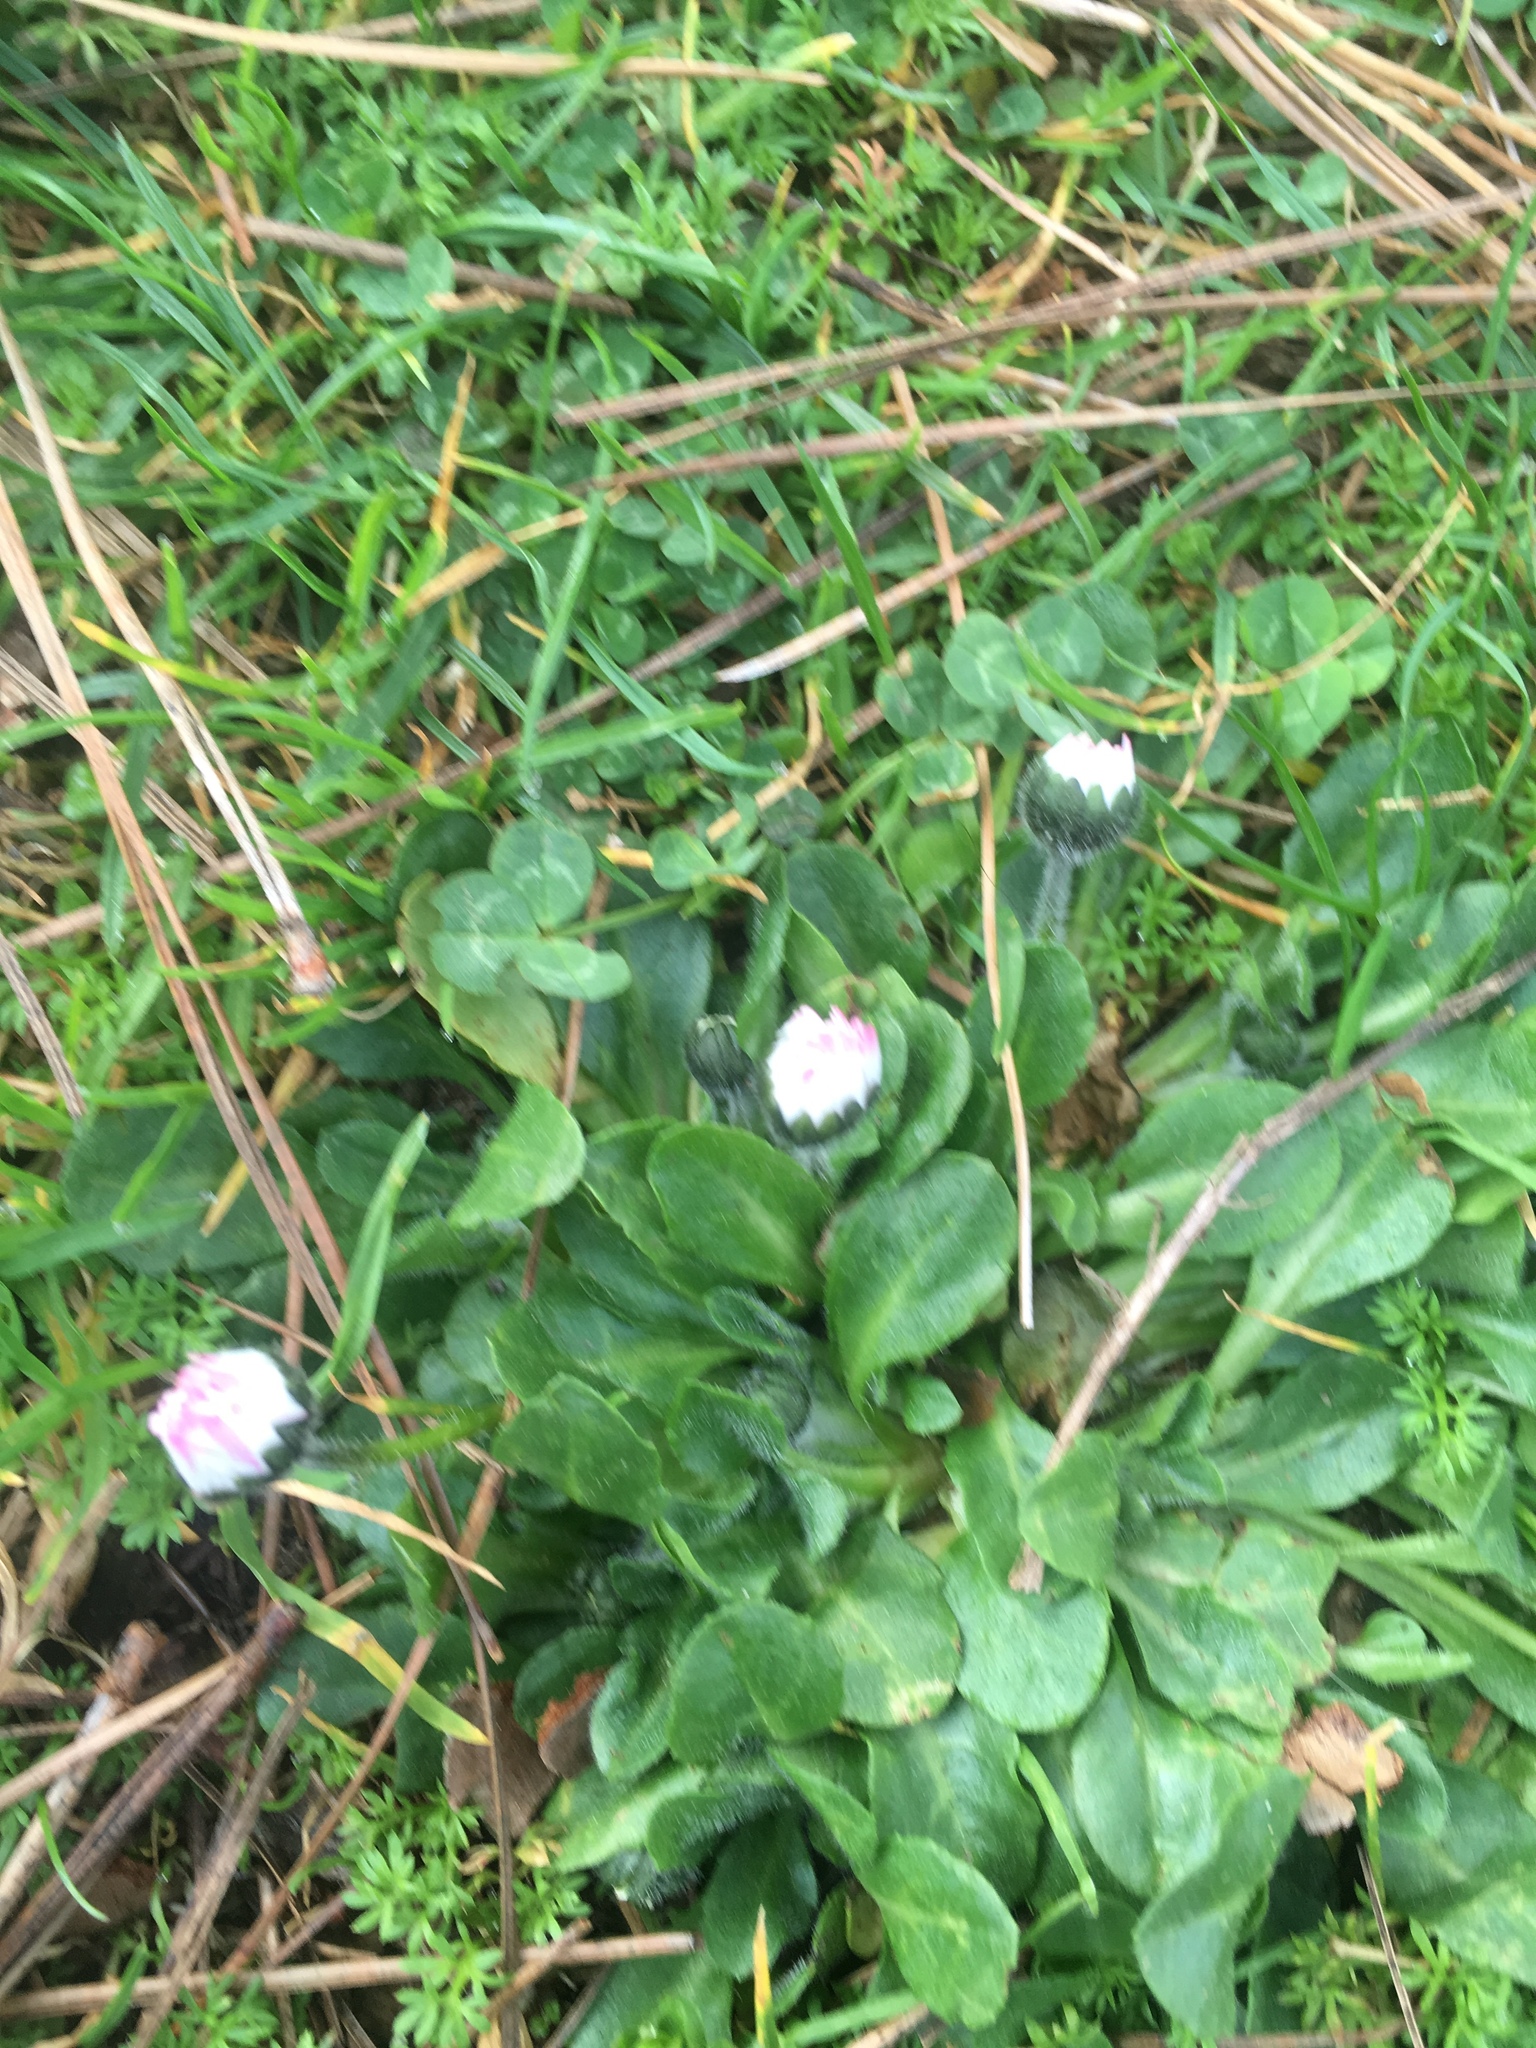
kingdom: Plantae
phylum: Tracheophyta
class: Magnoliopsida
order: Asterales
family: Asteraceae
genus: Bellis
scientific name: Bellis perennis
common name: Lawndaisy
